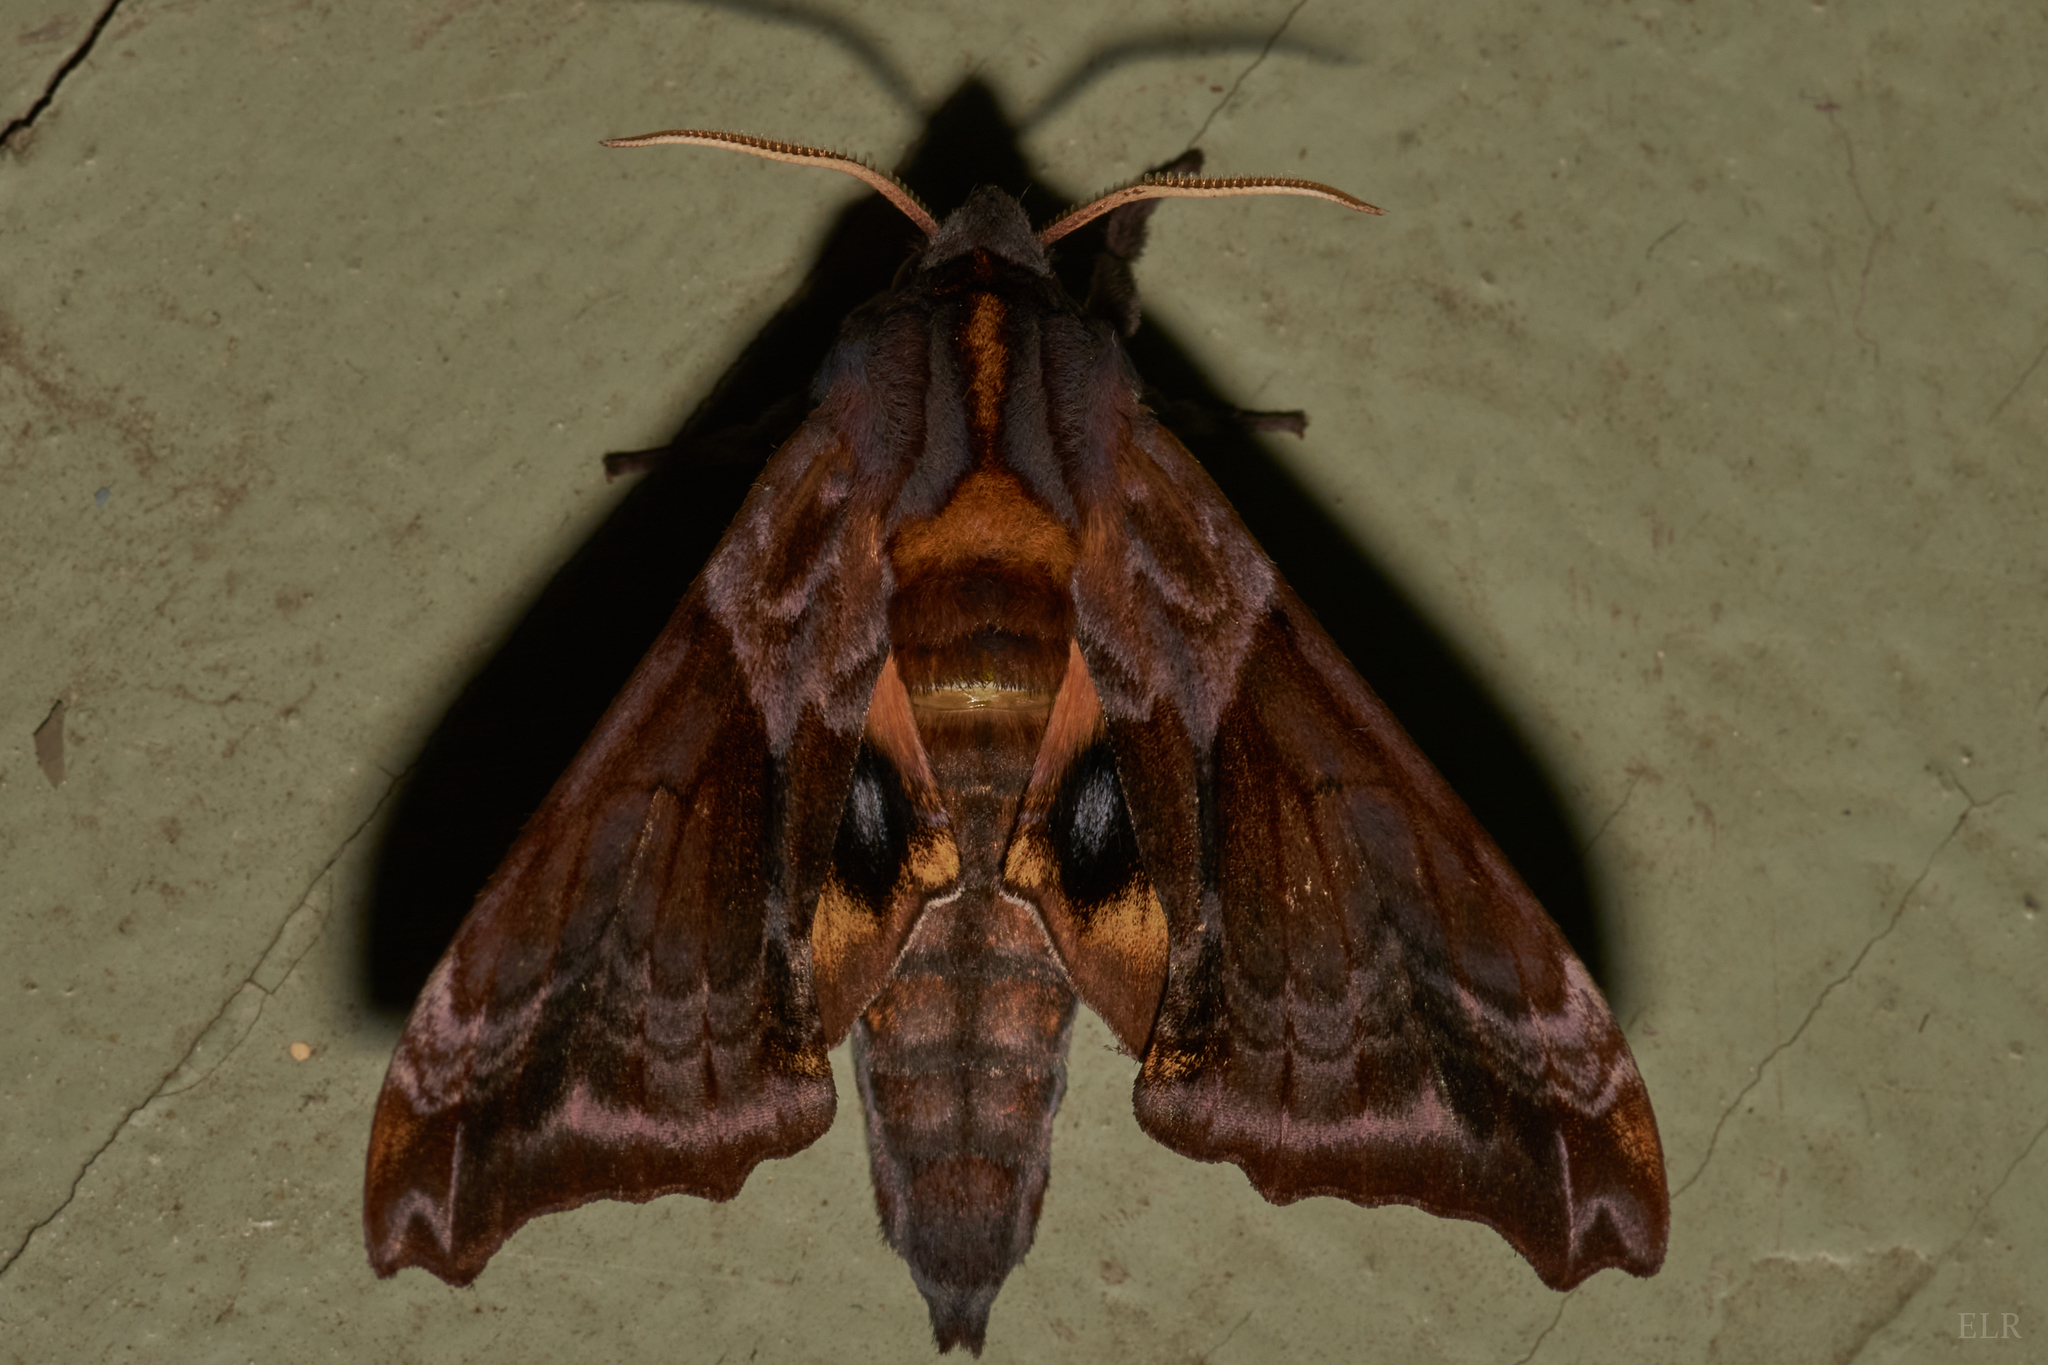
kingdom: Animalia
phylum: Arthropoda
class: Insecta
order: Lepidoptera
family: Sphingidae
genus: Paonias
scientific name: Paonias myops
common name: Small-eyed sphinx
